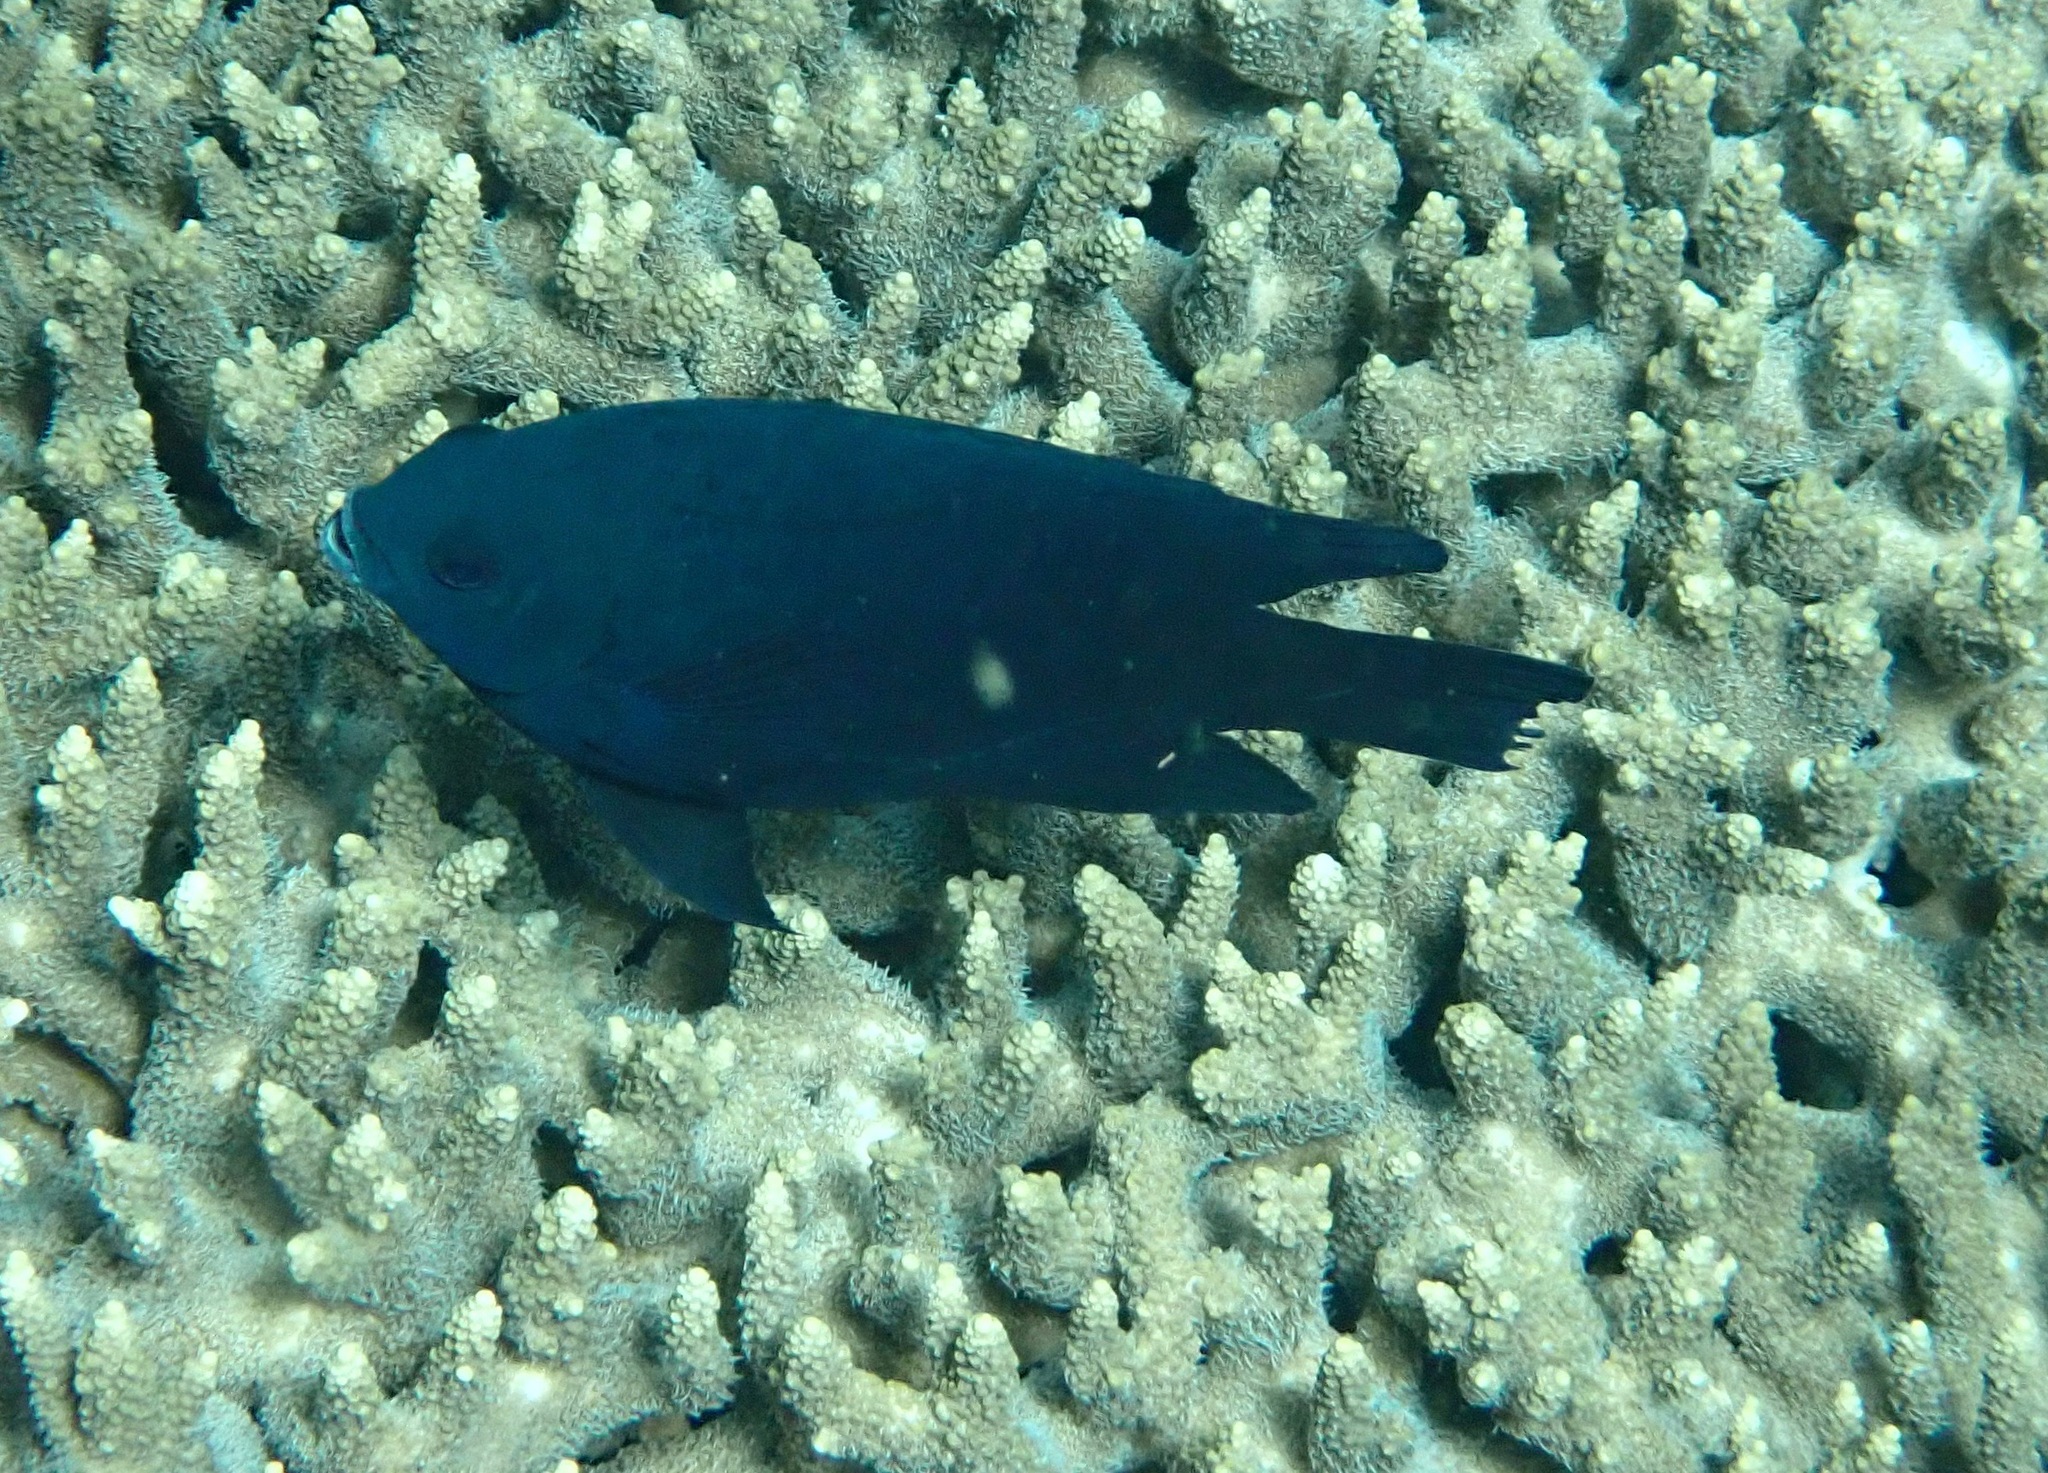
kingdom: Animalia
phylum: Chordata
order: Perciformes
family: Pomacentridae
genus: Neoglyphidodon
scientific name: Neoglyphidodon melas
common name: Black damsel
